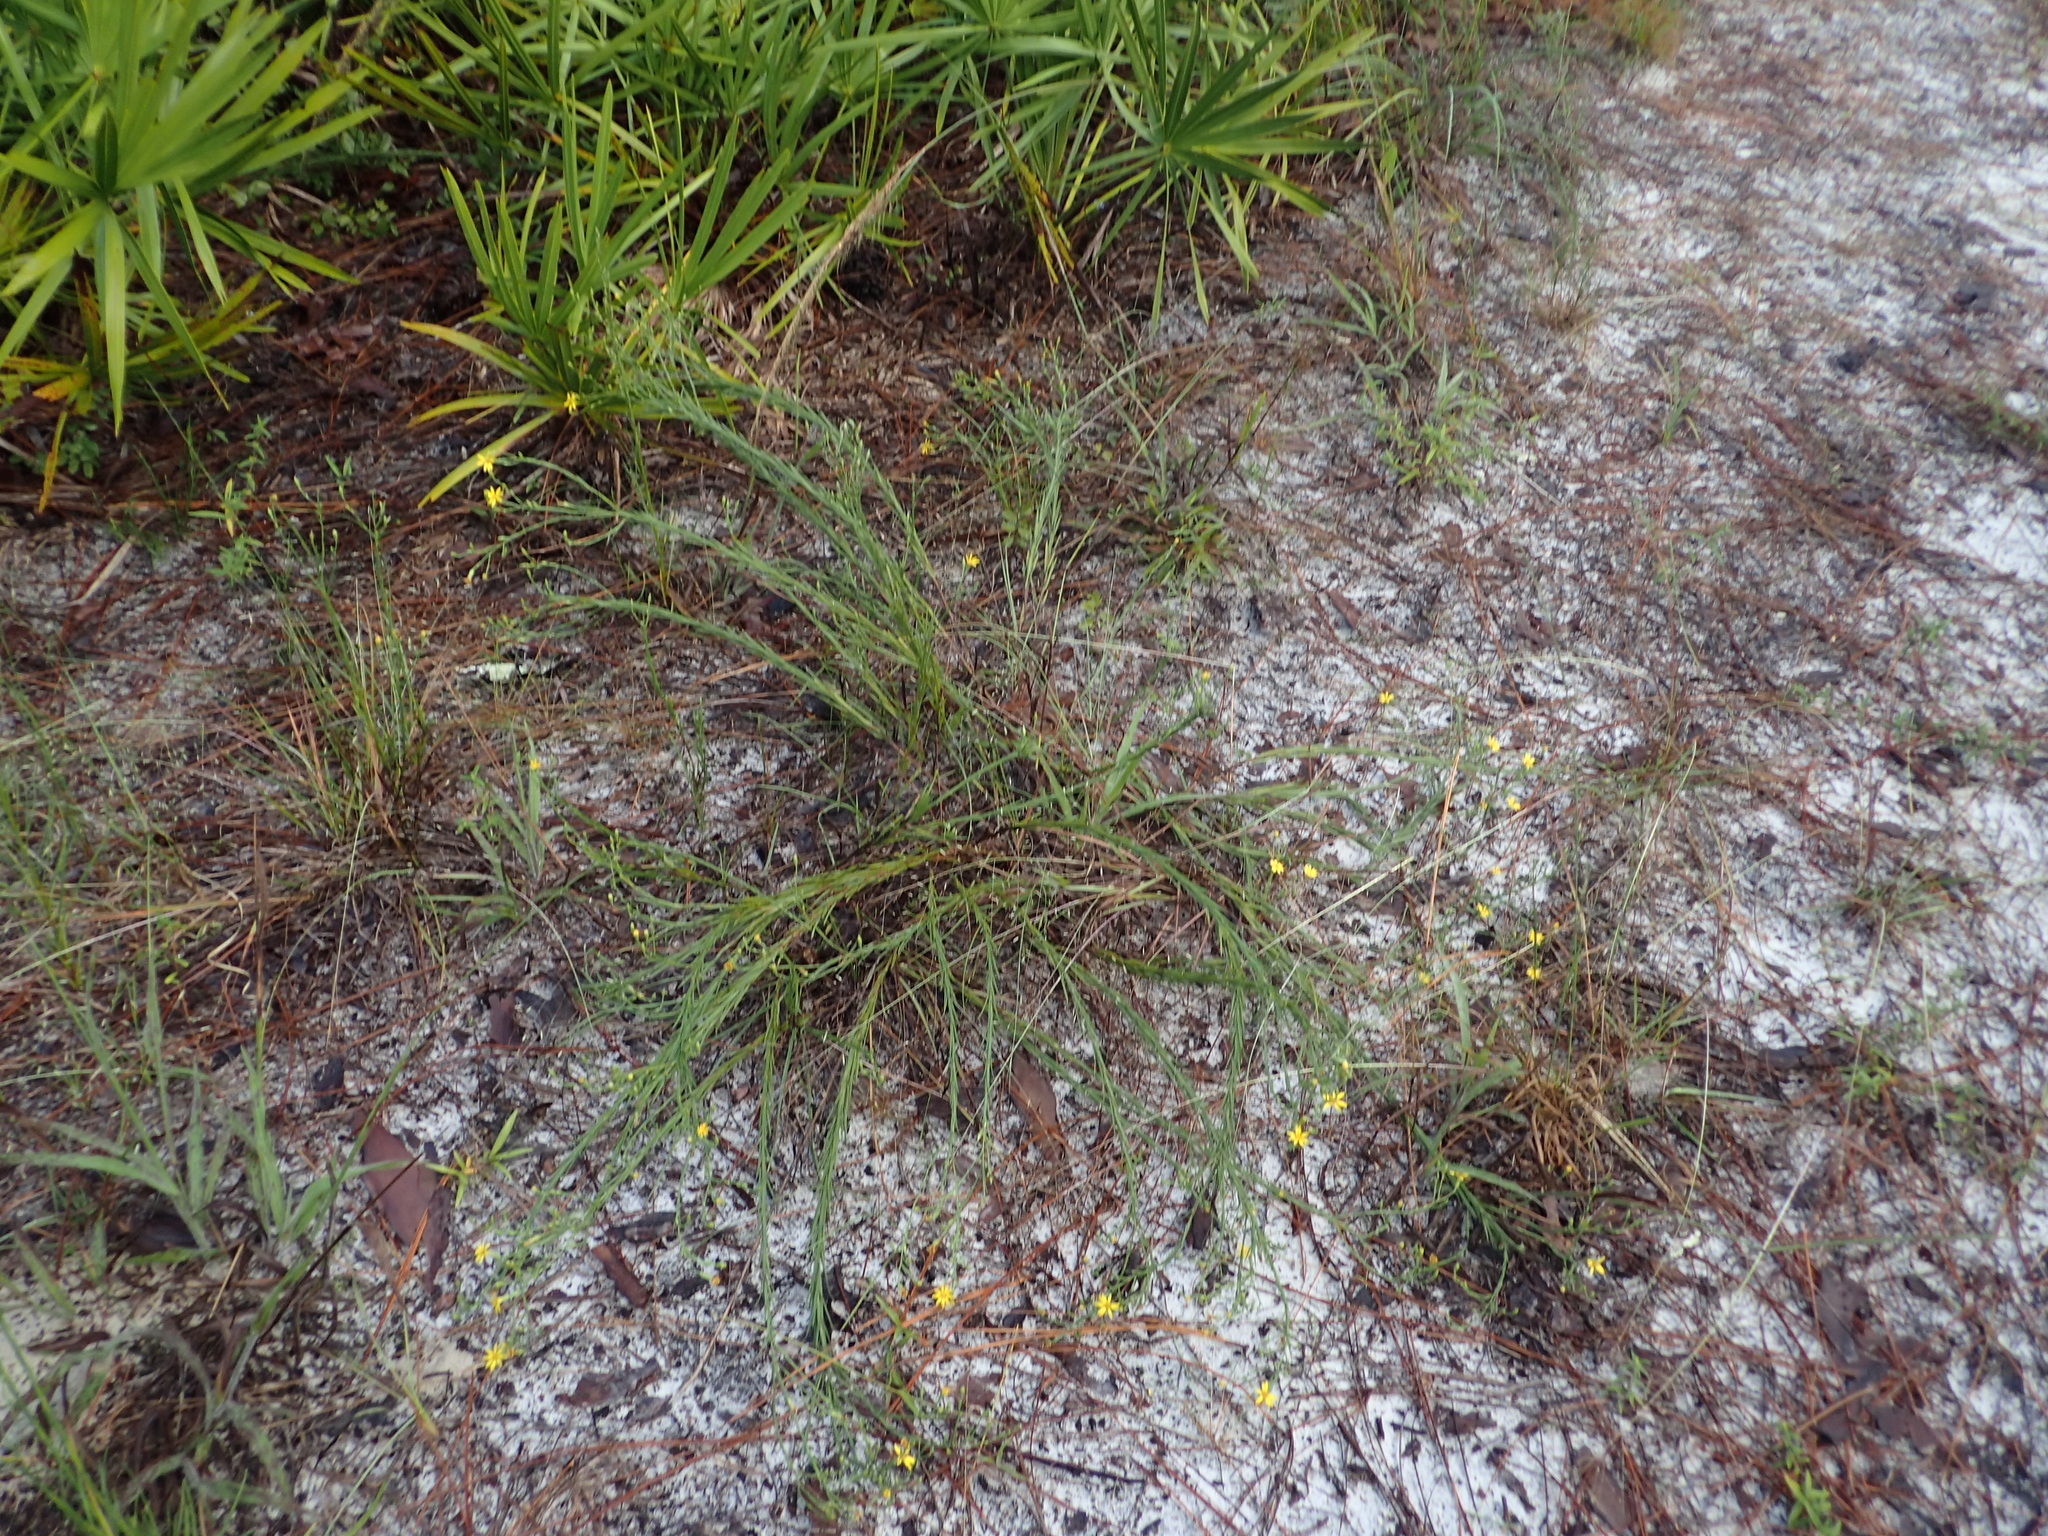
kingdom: Plantae
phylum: Tracheophyta
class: Magnoliopsida
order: Asterales
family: Asteraceae
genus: Pityopsis
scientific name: Pityopsis graminifolia
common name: Grass-leaf golden-aster
